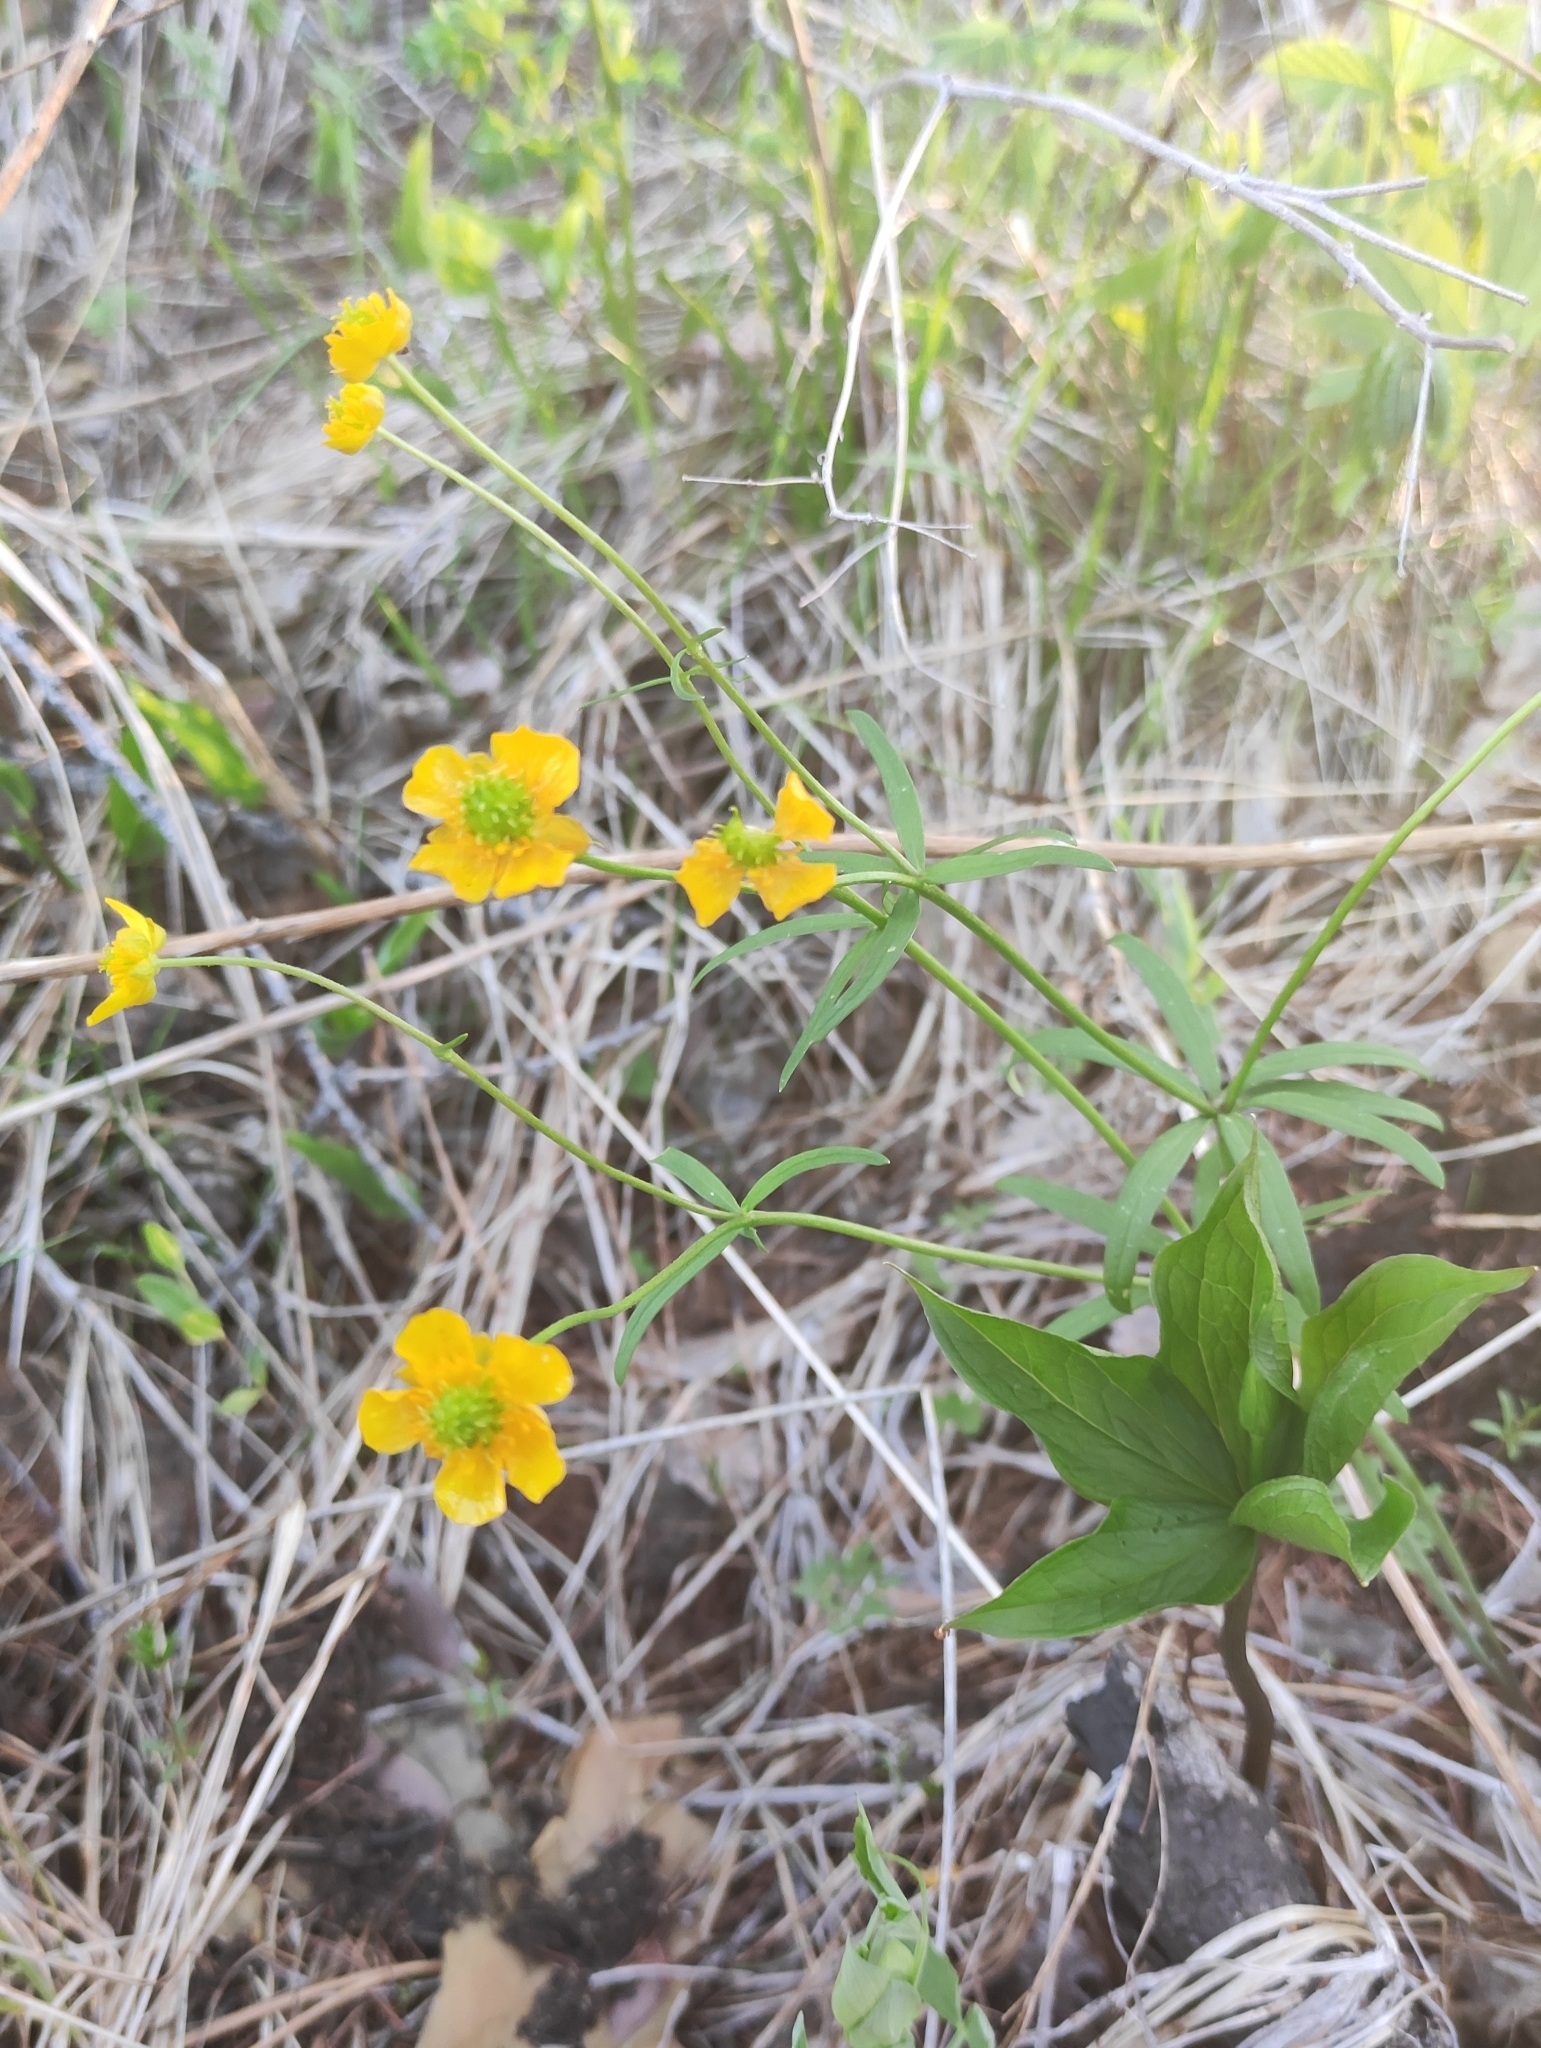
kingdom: Plantae
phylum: Tracheophyta
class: Magnoliopsida
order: Ranunculales
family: Ranunculaceae
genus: Ranunculus
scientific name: Ranunculus monophyllus
